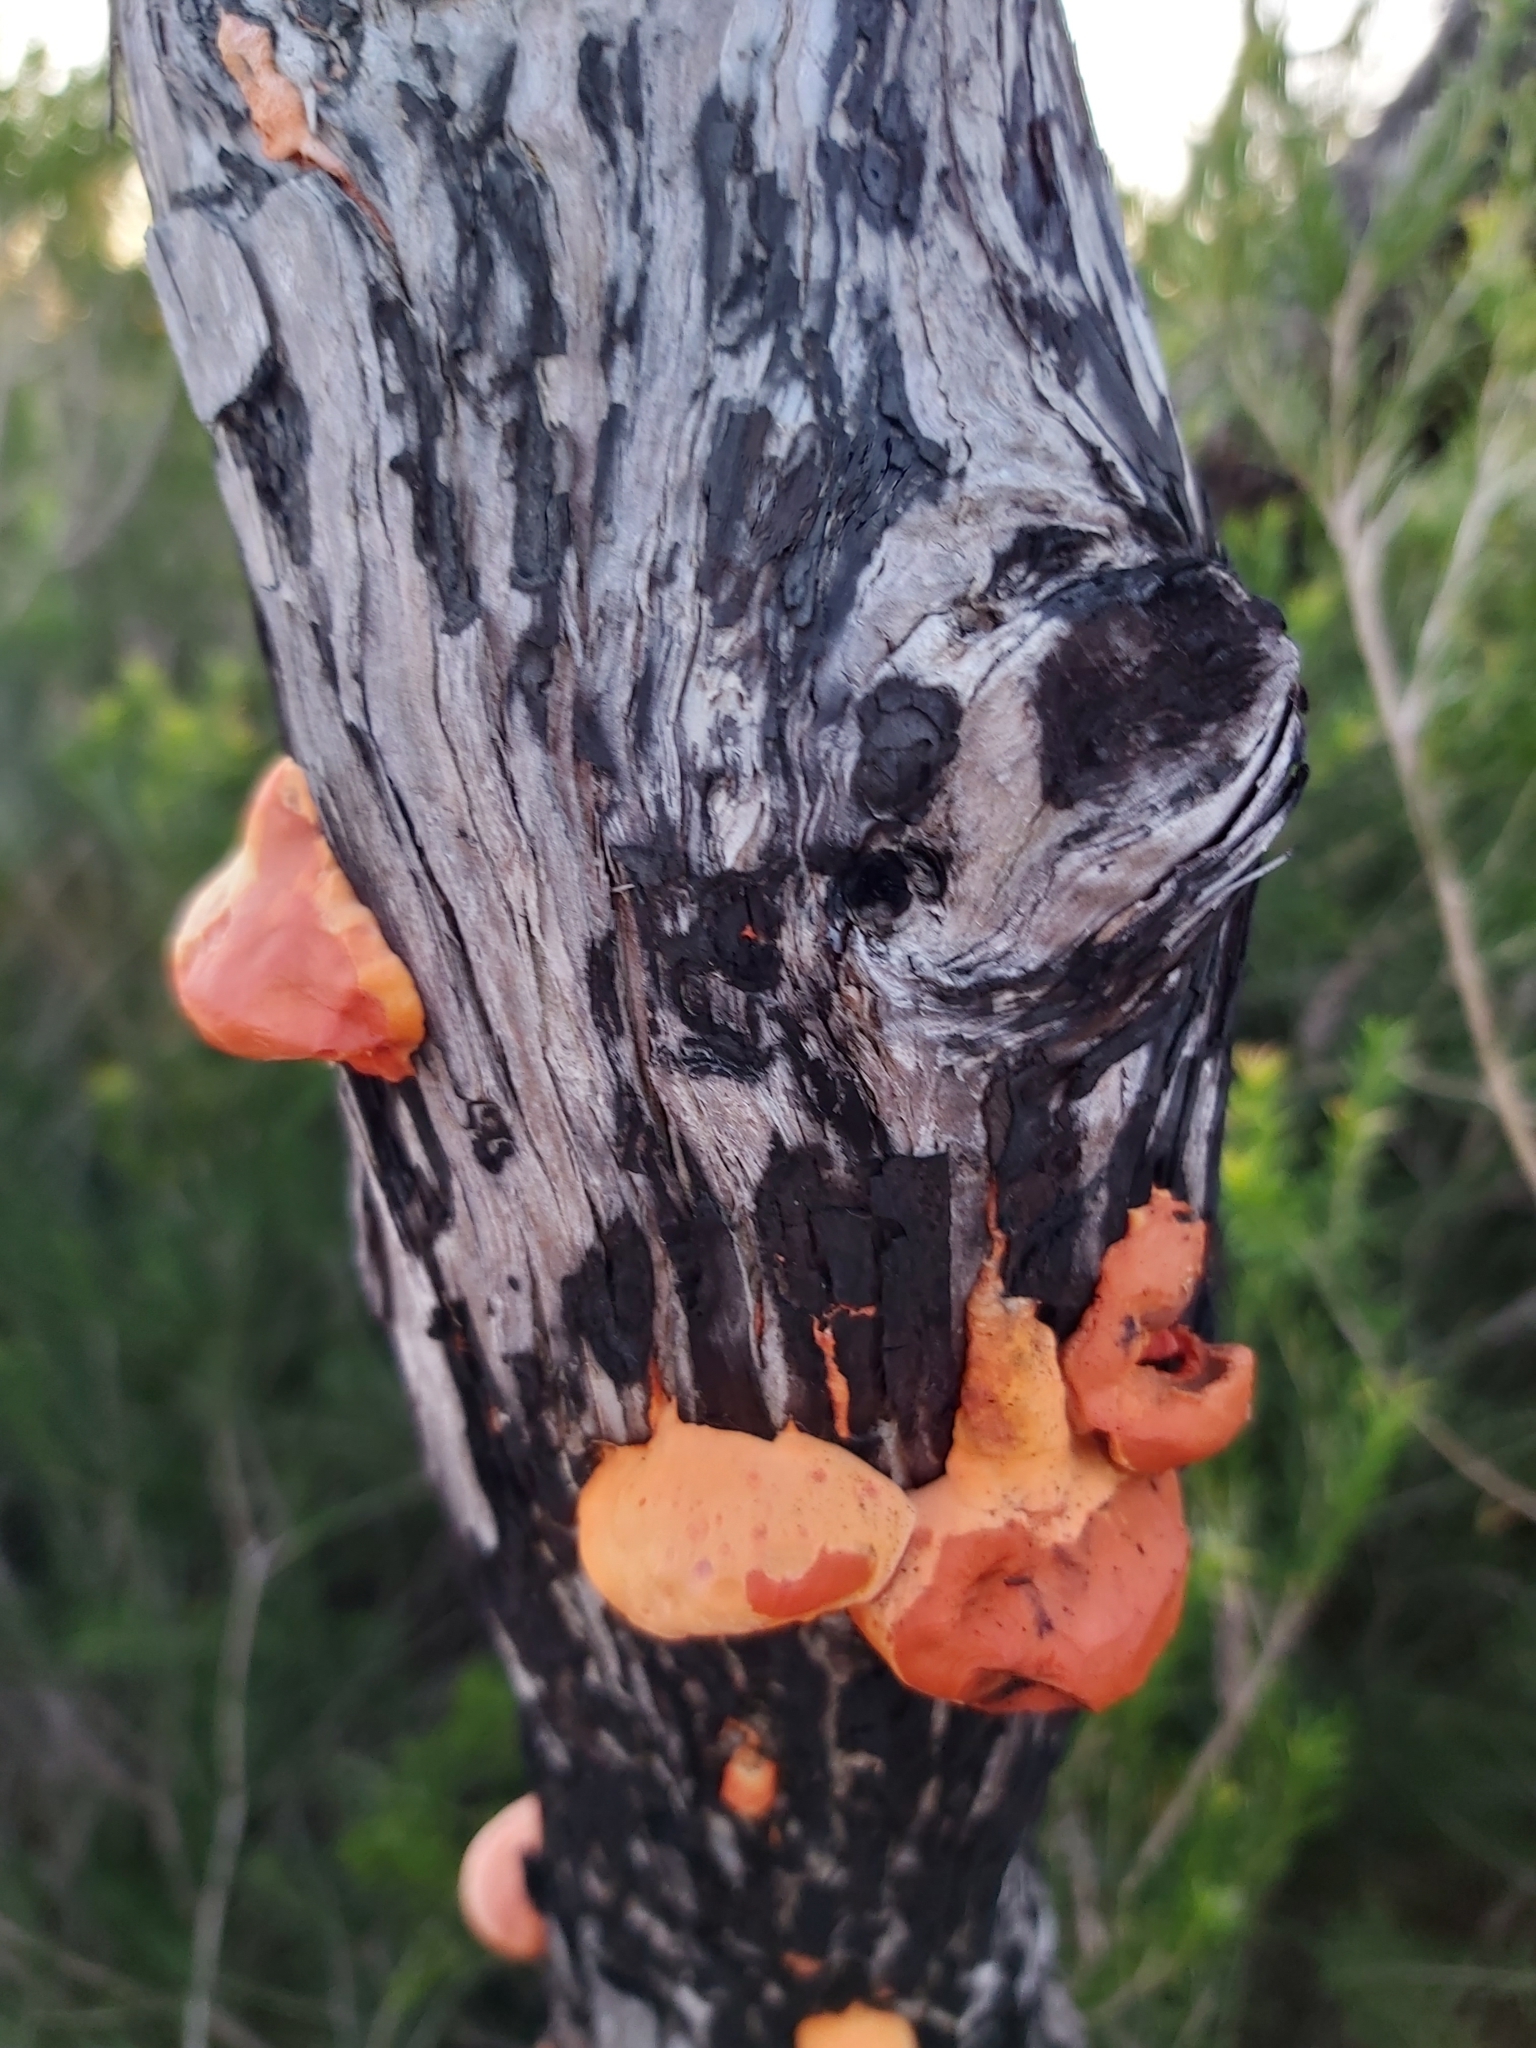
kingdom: Fungi
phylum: Basidiomycota
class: Agaricomycetes
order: Polyporales
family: Polyporaceae
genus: Trametes
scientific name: Trametes coccinea
